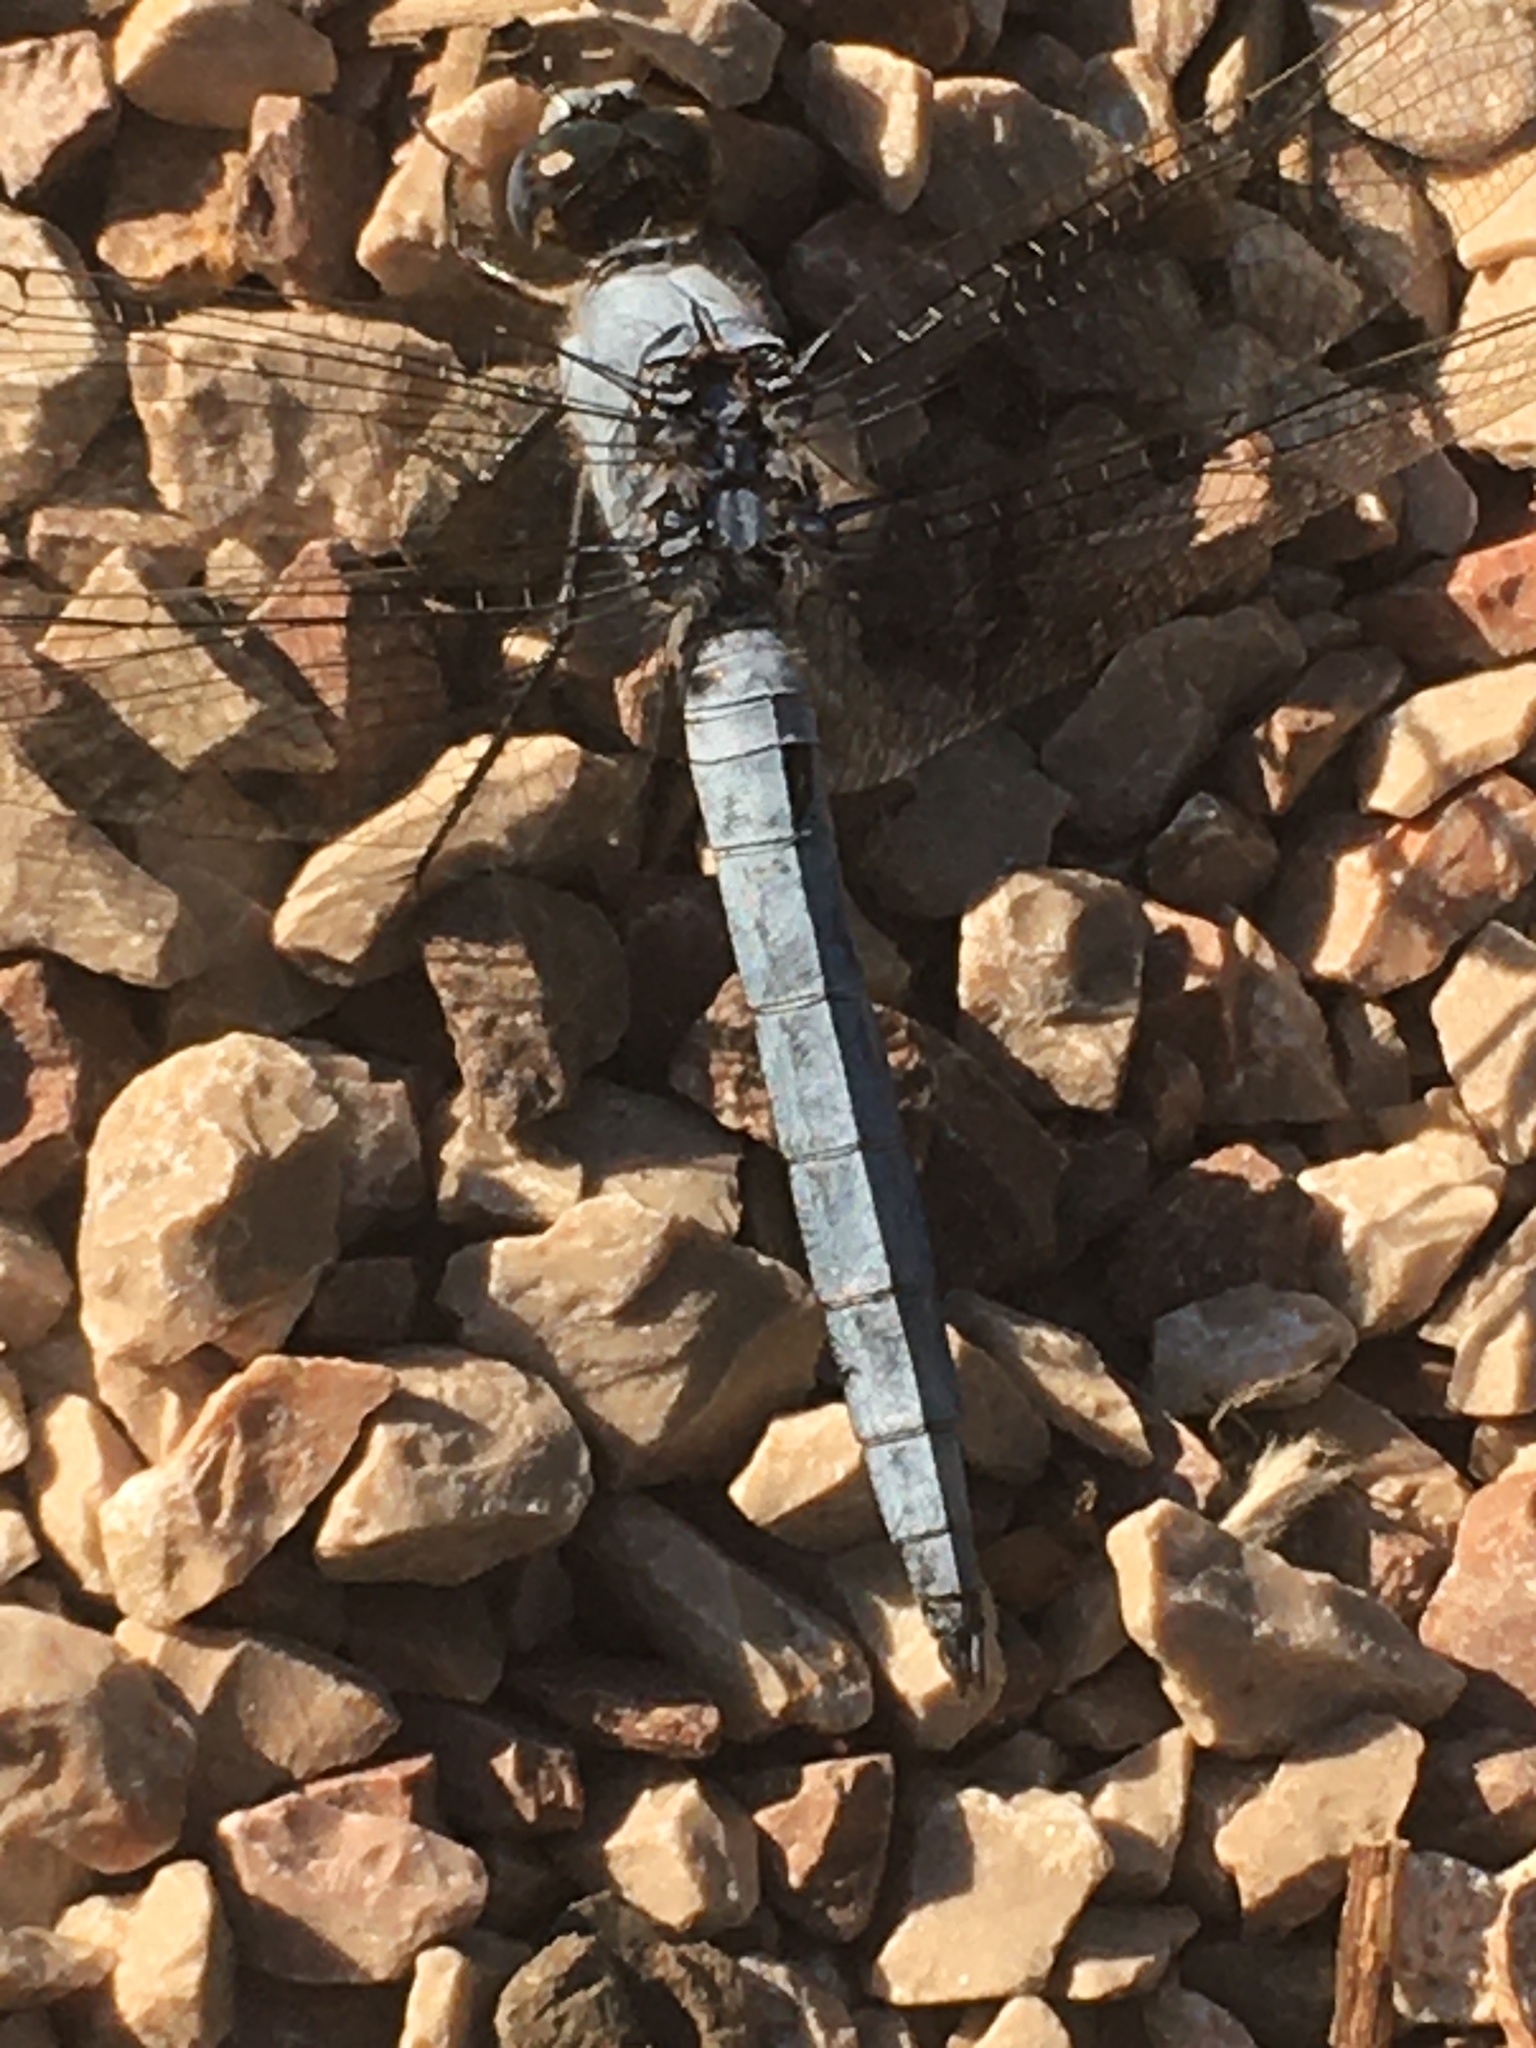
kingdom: Animalia
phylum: Arthropoda
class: Insecta
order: Odonata
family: Libellulidae
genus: Orthetrum
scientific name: Orthetrum coerulescens
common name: Keeled skimmer
